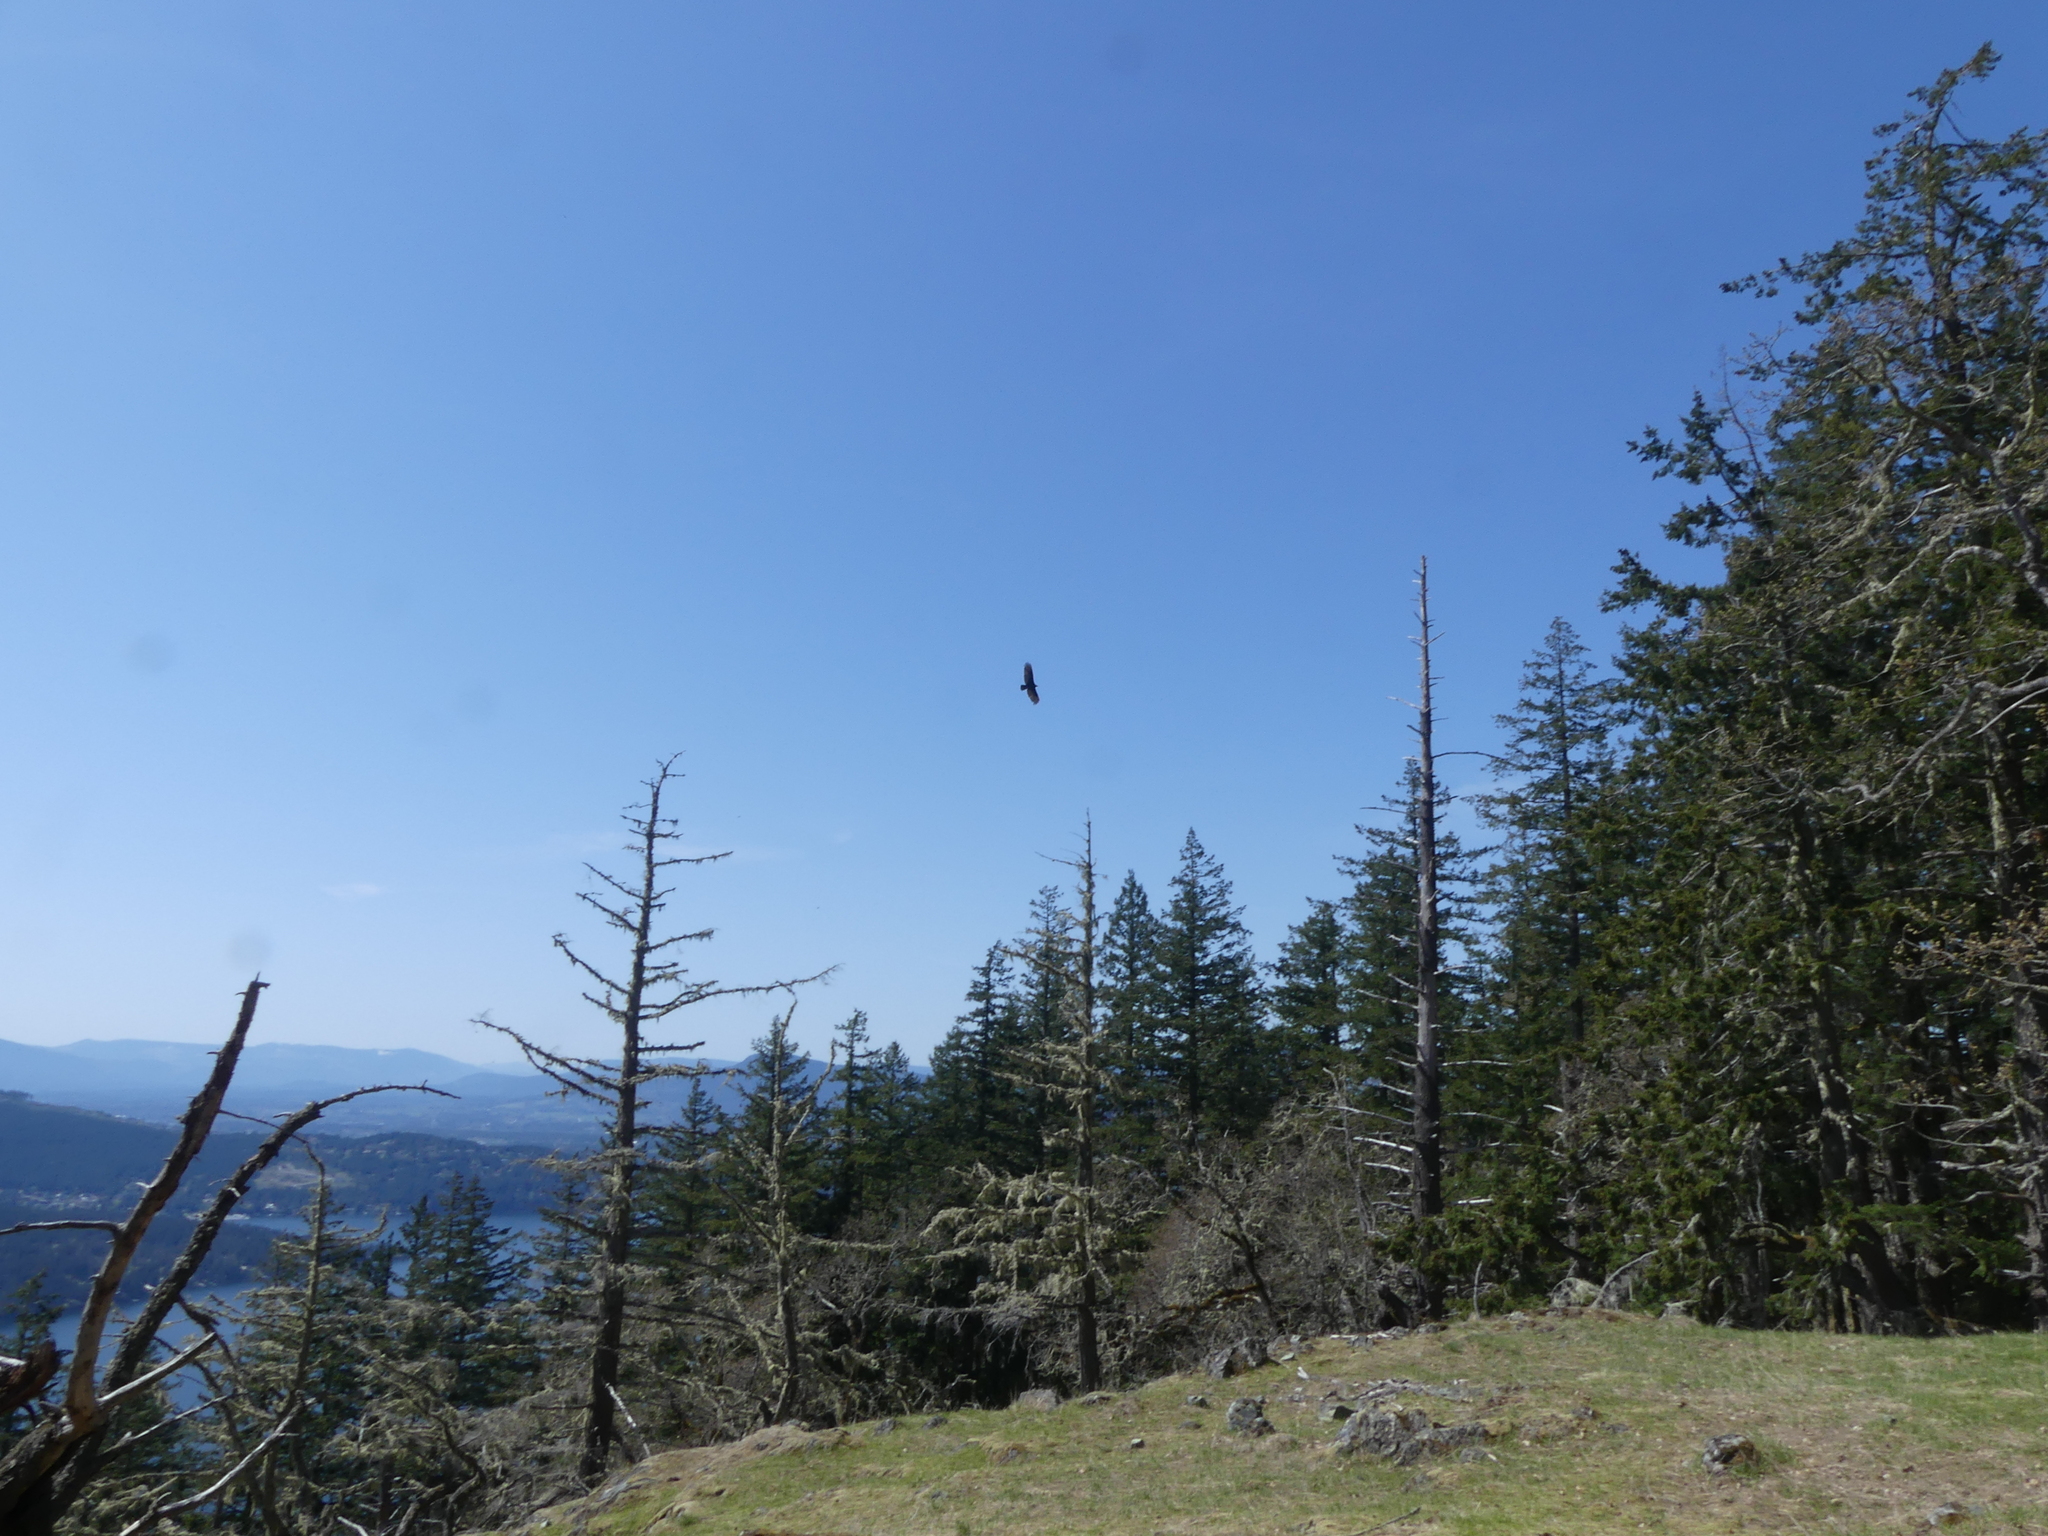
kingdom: Animalia
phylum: Chordata
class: Aves
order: Accipitriformes
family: Cathartidae
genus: Cathartes
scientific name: Cathartes aura
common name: Turkey vulture
